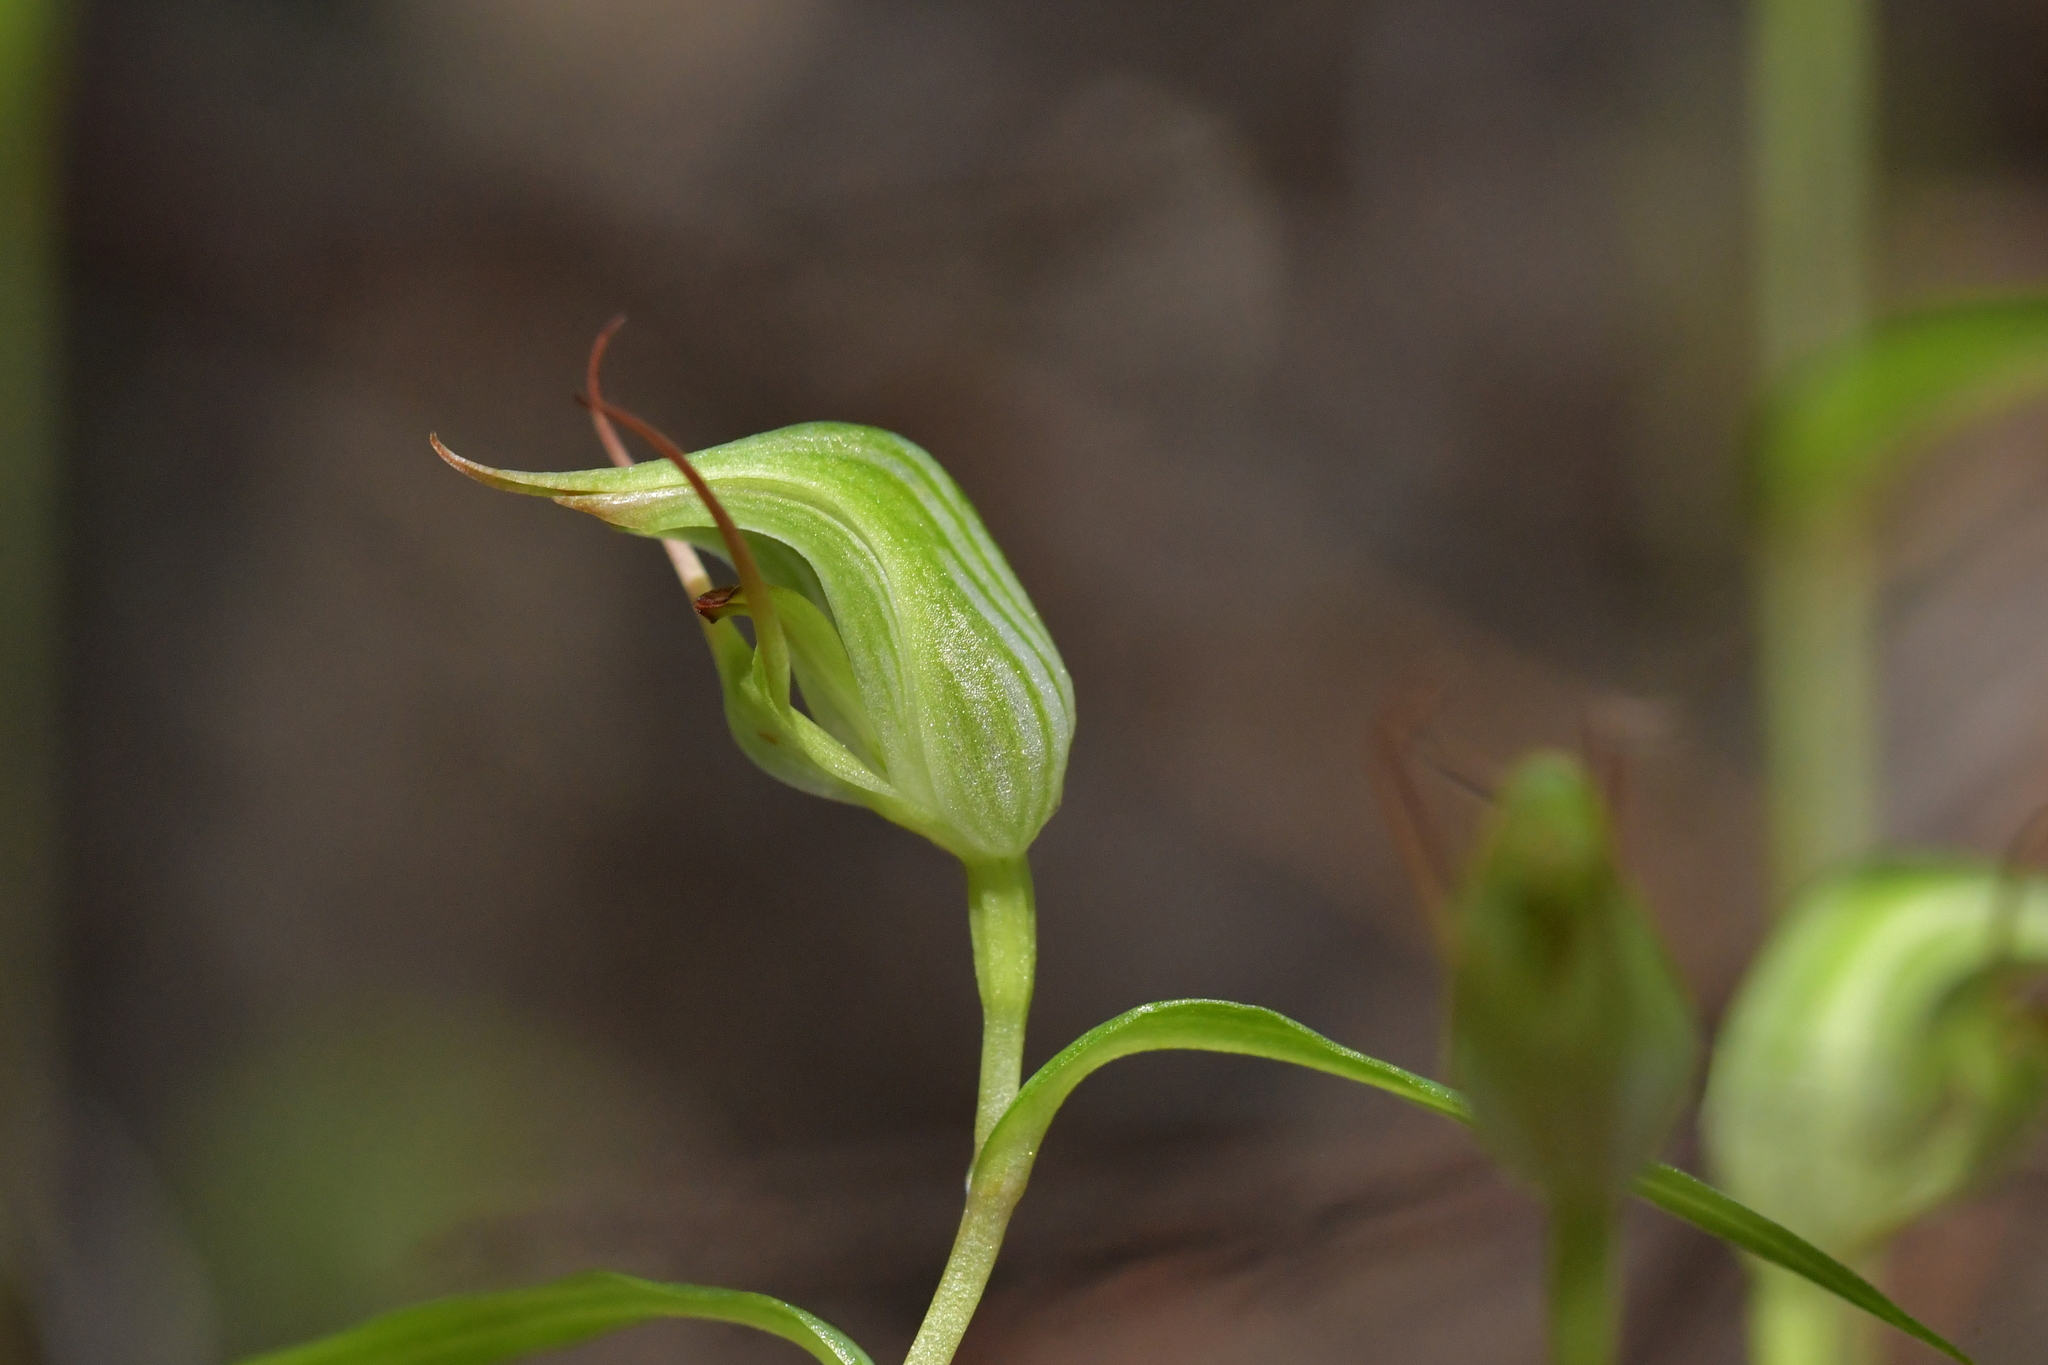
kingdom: Plantae
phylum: Tracheophyta
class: Liliopsida
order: Asparagales
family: Orchidaceae
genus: Pterostylis
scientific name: Pterostylis agathicola
